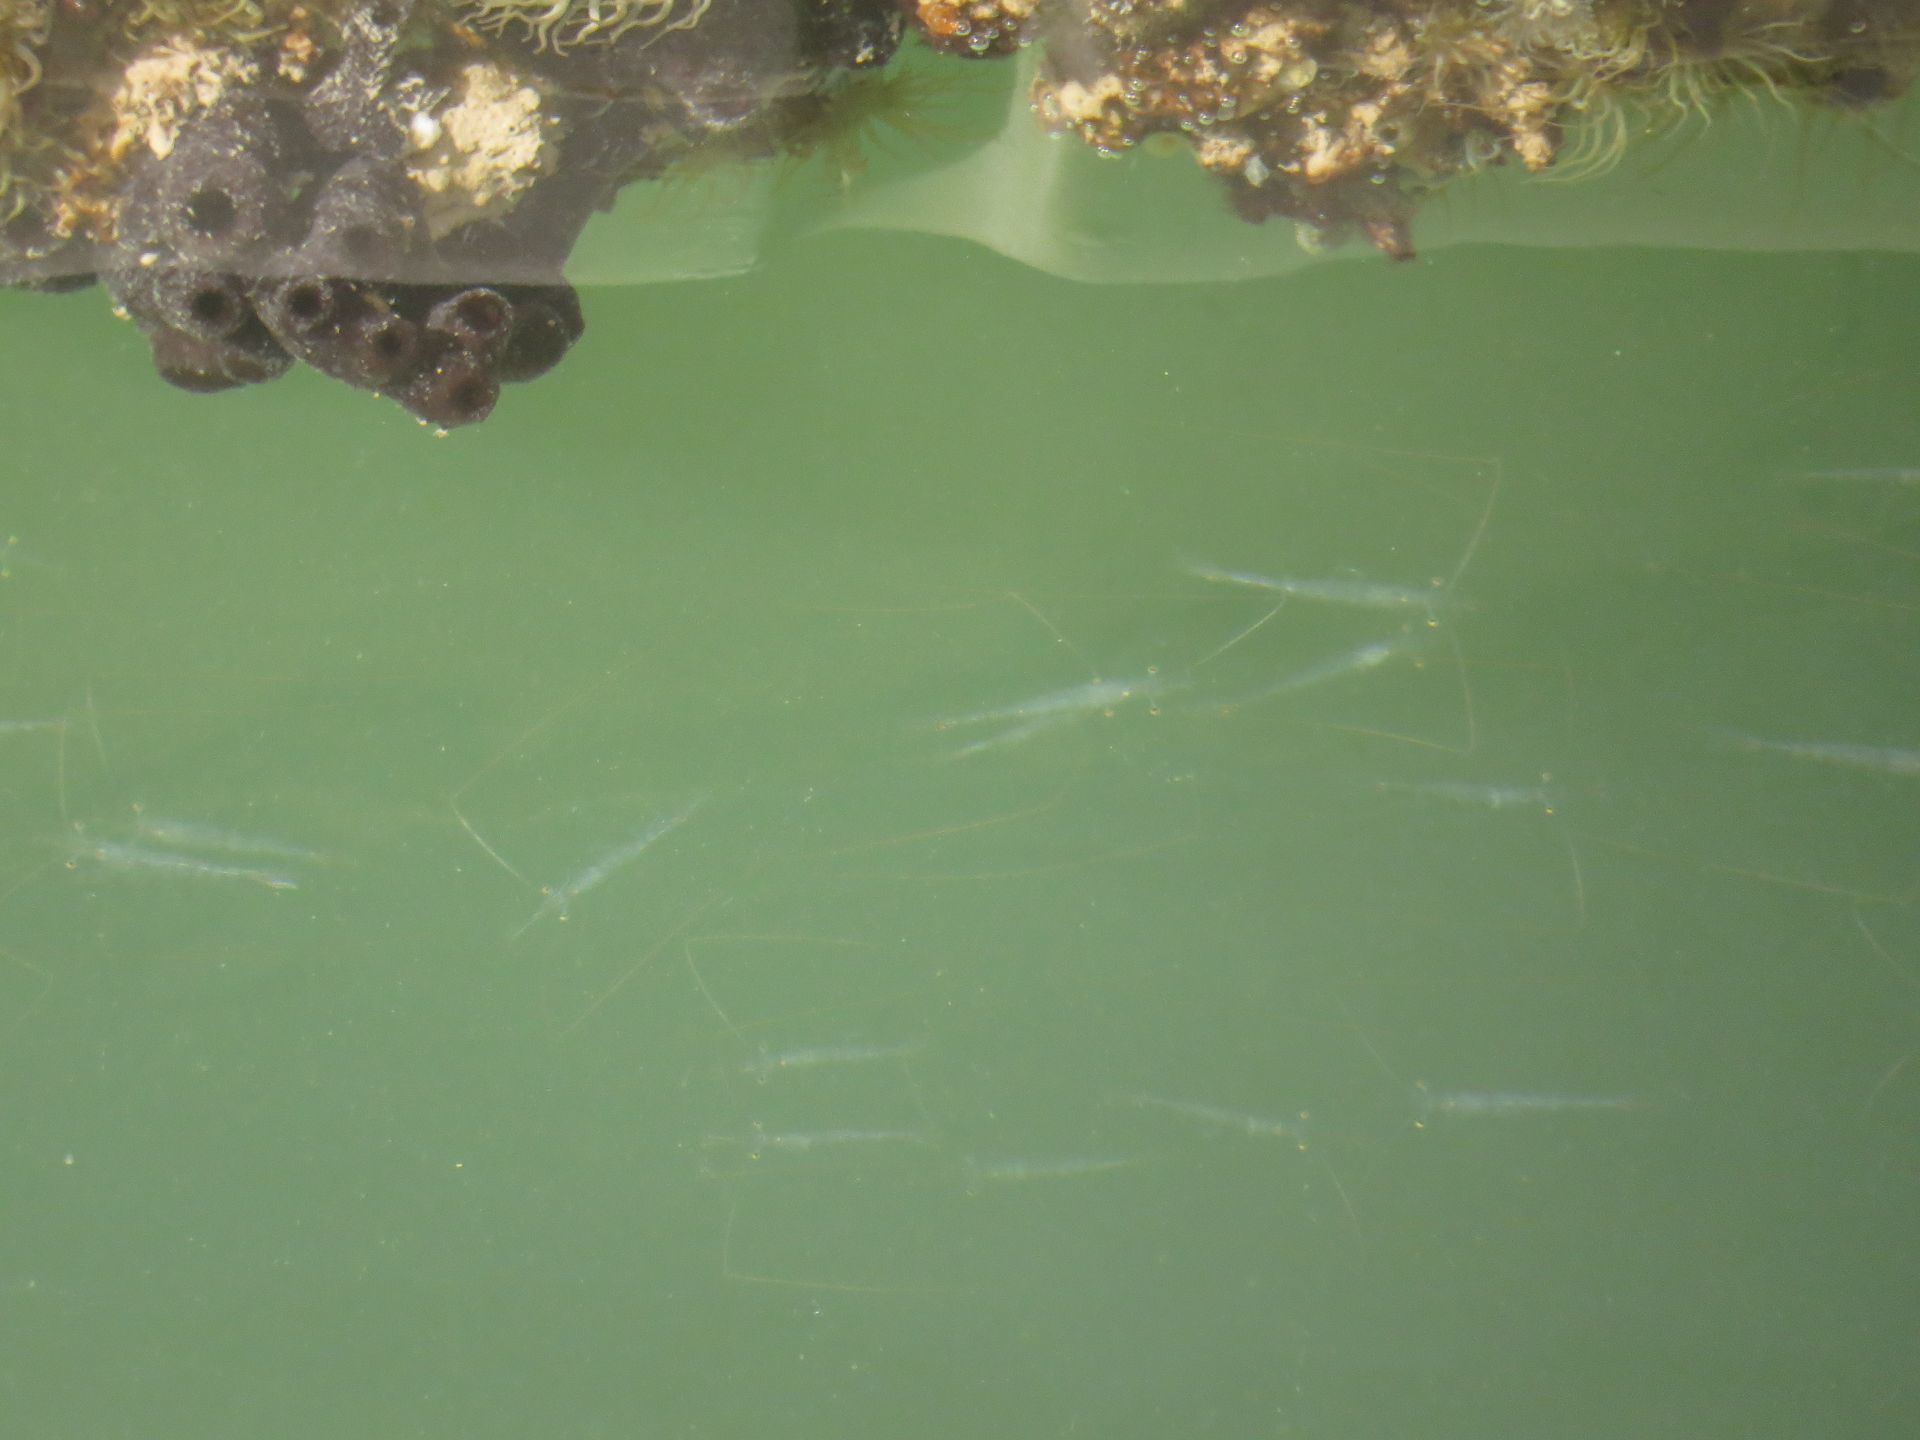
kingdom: Animalia
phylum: Arthropoda
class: Malacostraca
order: Decapoda
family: Acetidae
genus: Acetes
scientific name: Acetes sibogae
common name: Alamang shrimp
